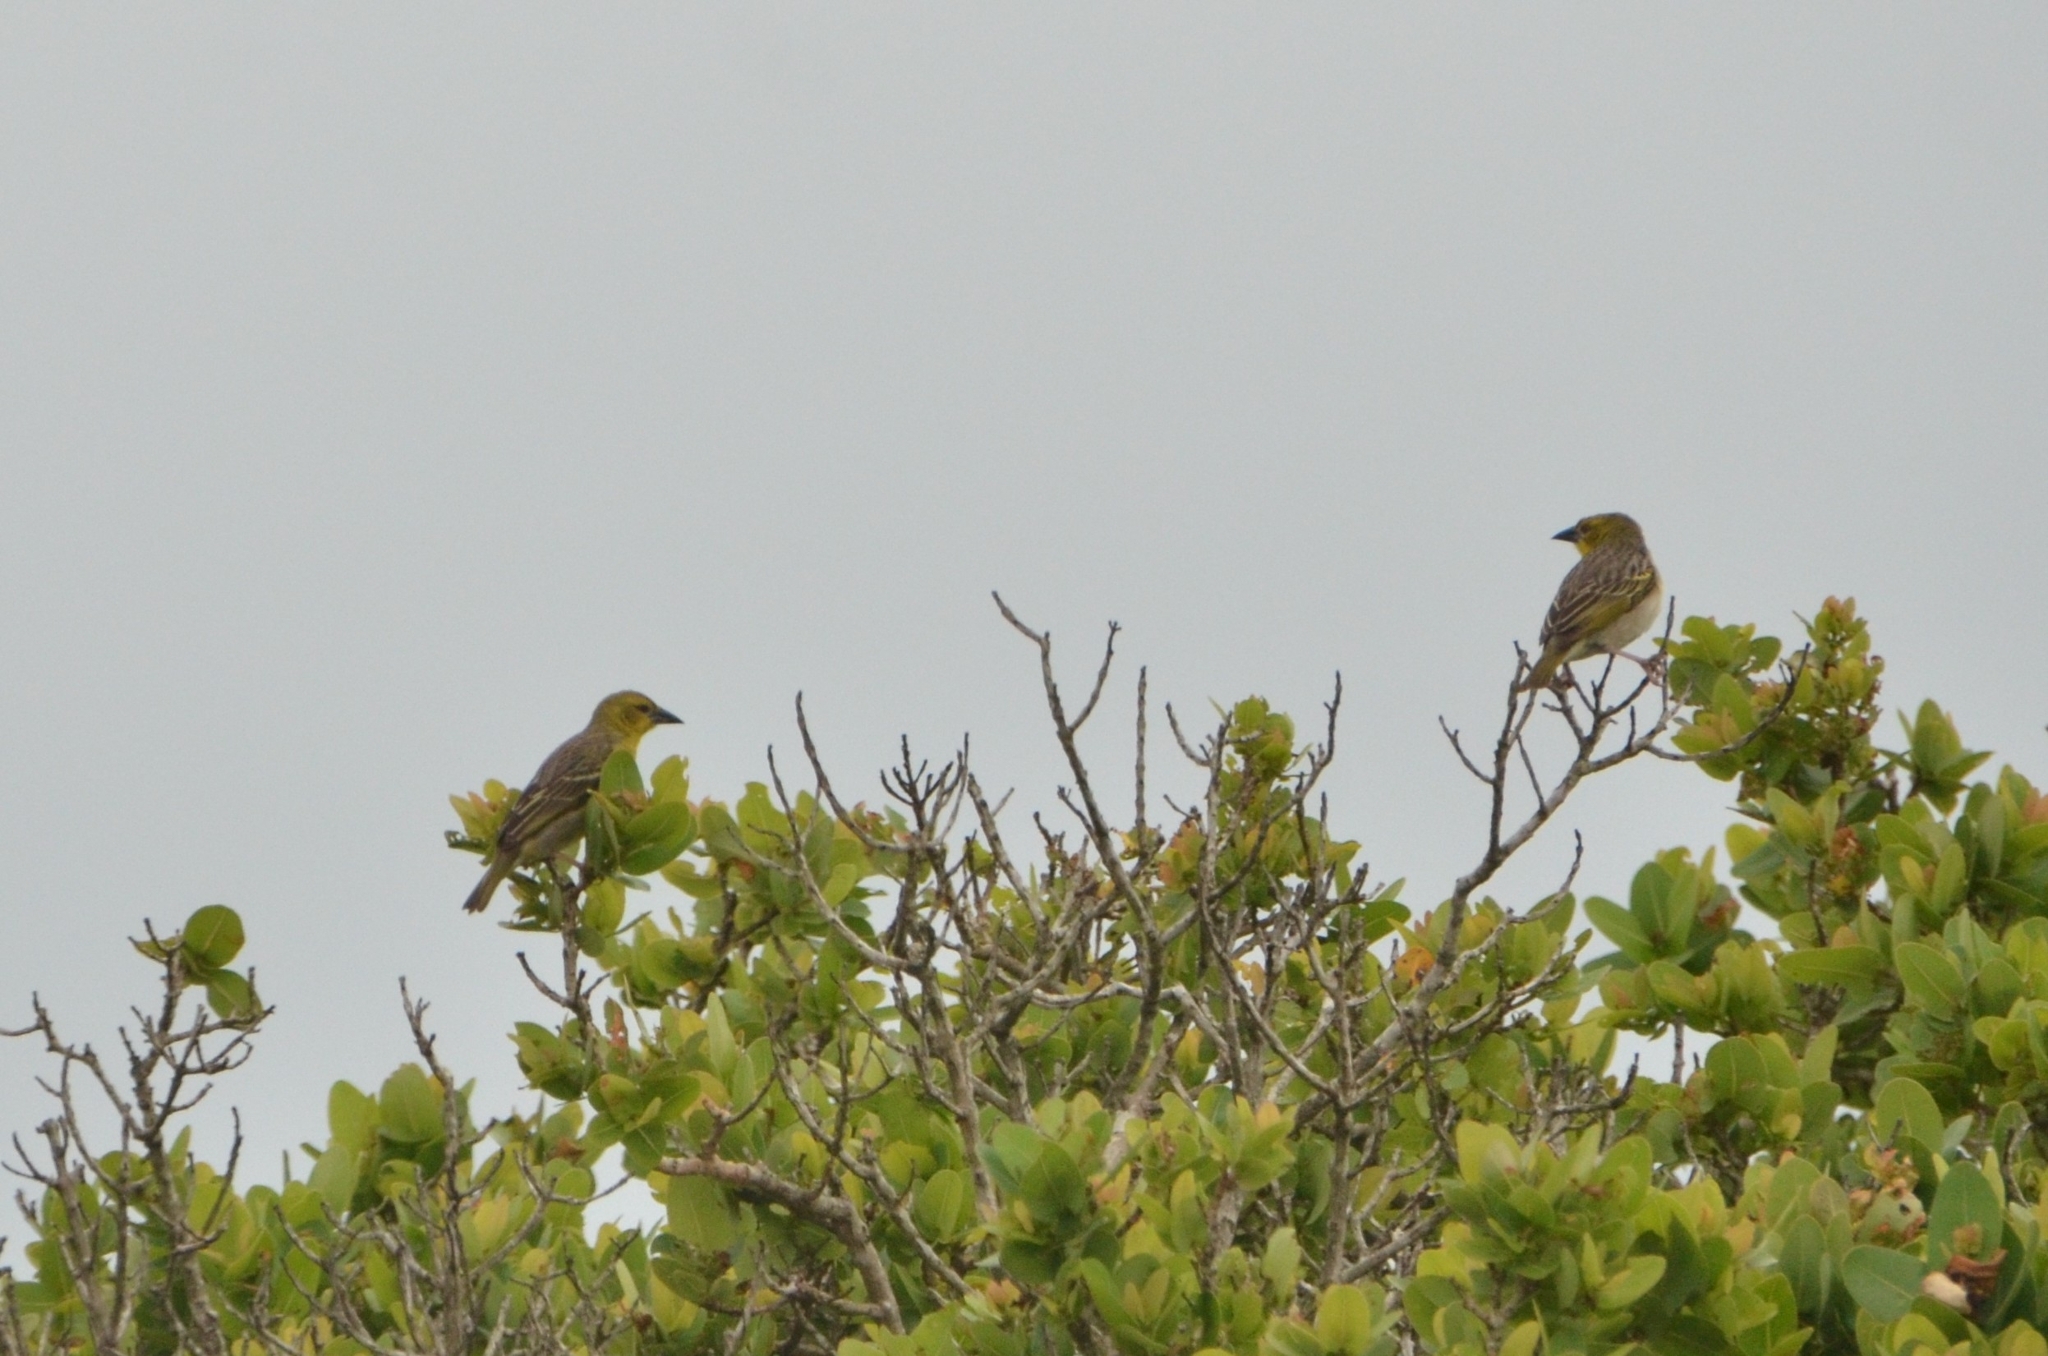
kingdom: Animalia
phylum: Chordata
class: Aves
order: Passeriformes
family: Ploceidae
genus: Ploceus
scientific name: Ploceus cucullatus
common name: Village weaver
